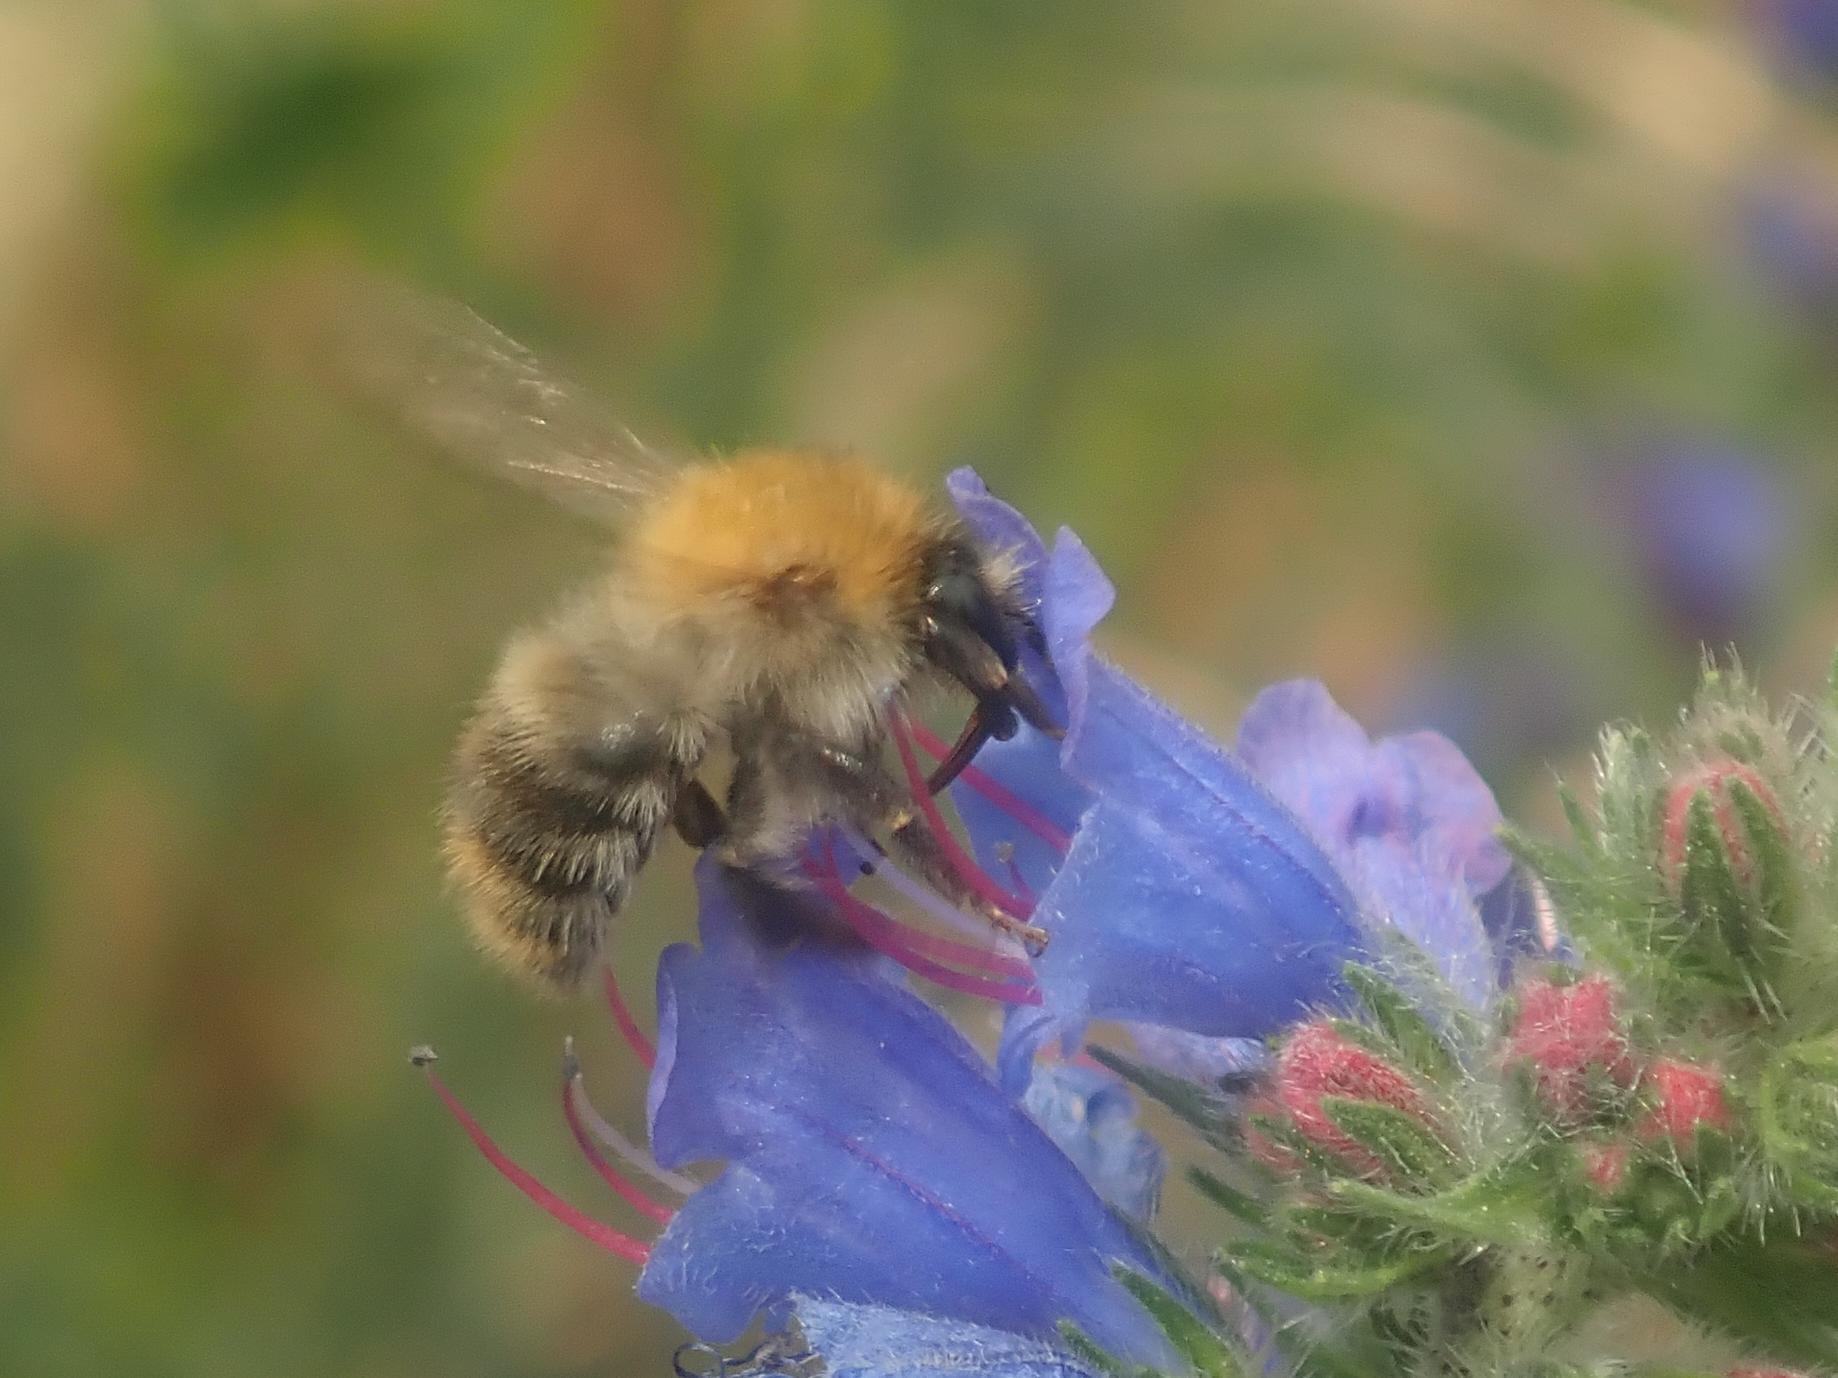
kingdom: Animalia
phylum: Arthropoda
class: Insecta
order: Hymenoptera
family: Apidae
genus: Bombus
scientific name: Bombus pascuorum
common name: Common carder bee
